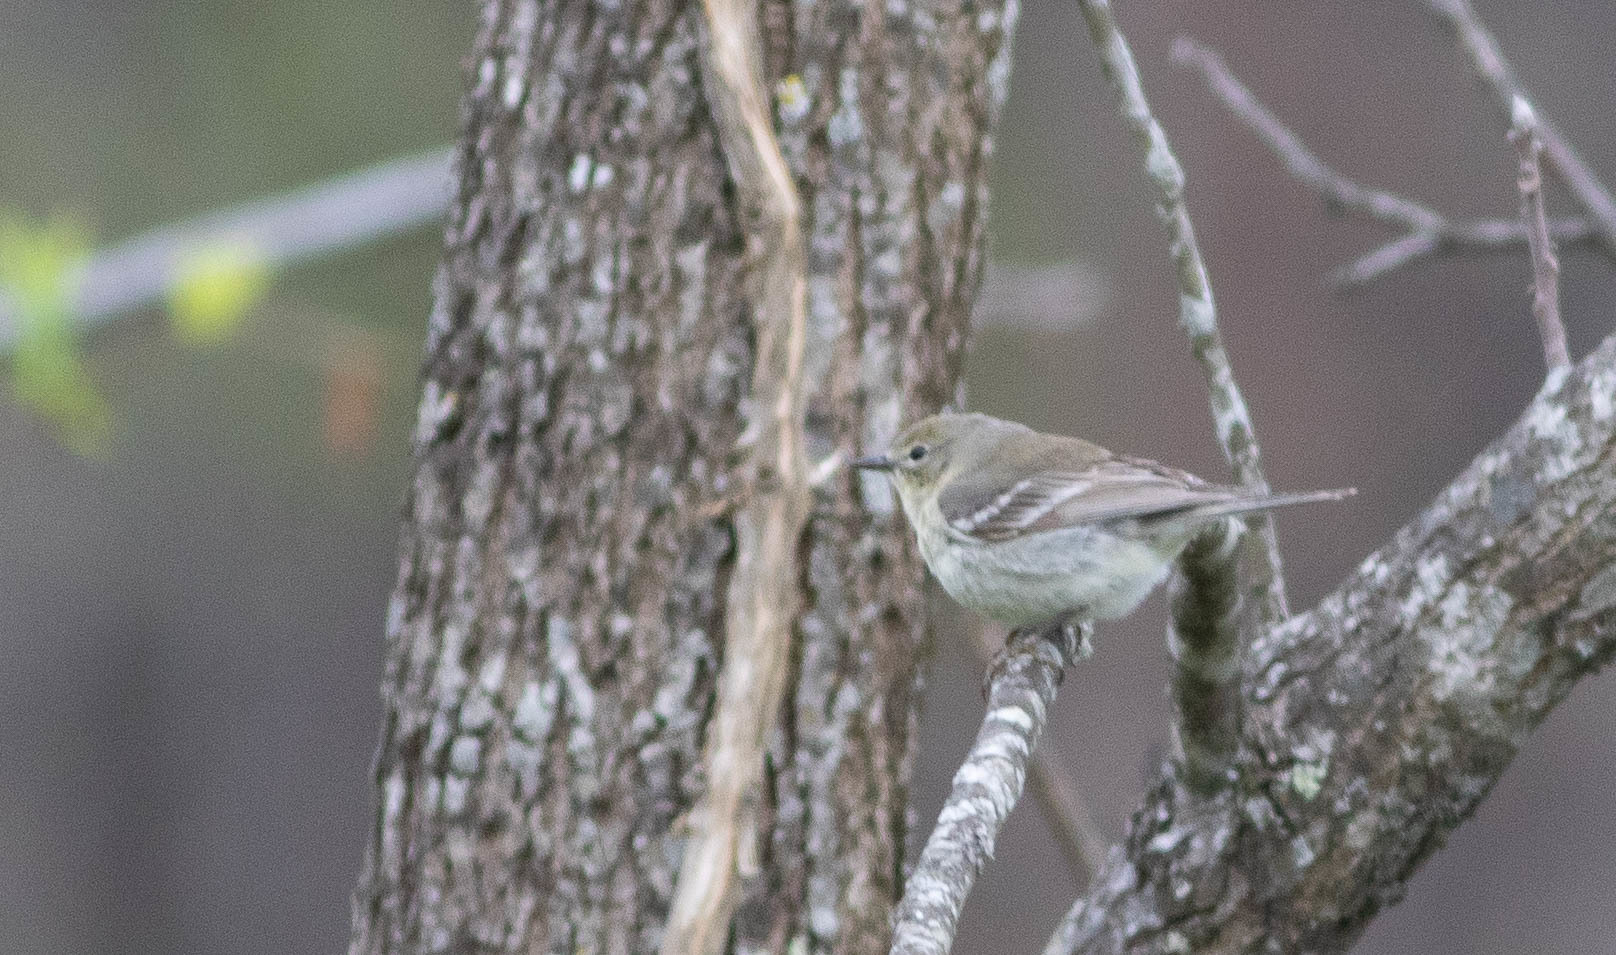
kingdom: Animalia
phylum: Chordata
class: Aves
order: Passeriformes
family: Parulidae
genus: Setophaga
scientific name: Setophaga pinus
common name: Pine warbler
